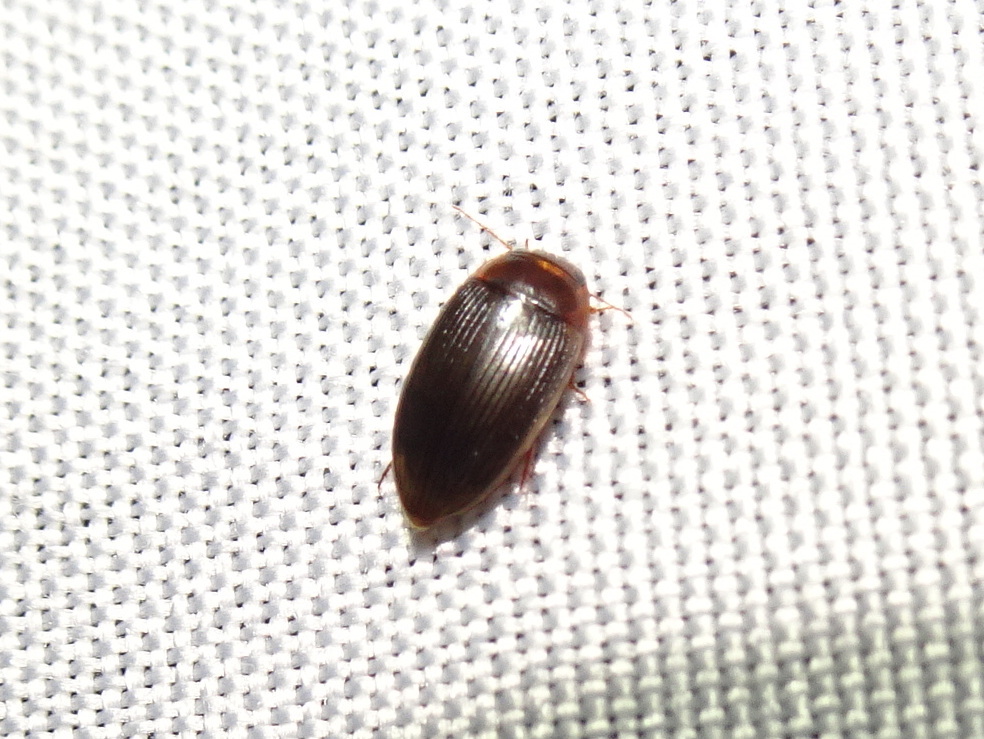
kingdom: Animalia
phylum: Arthropoda
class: Insecta
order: Coleoptera
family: Dytiscidae
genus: Copelatus
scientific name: Copelatus glyphicus
